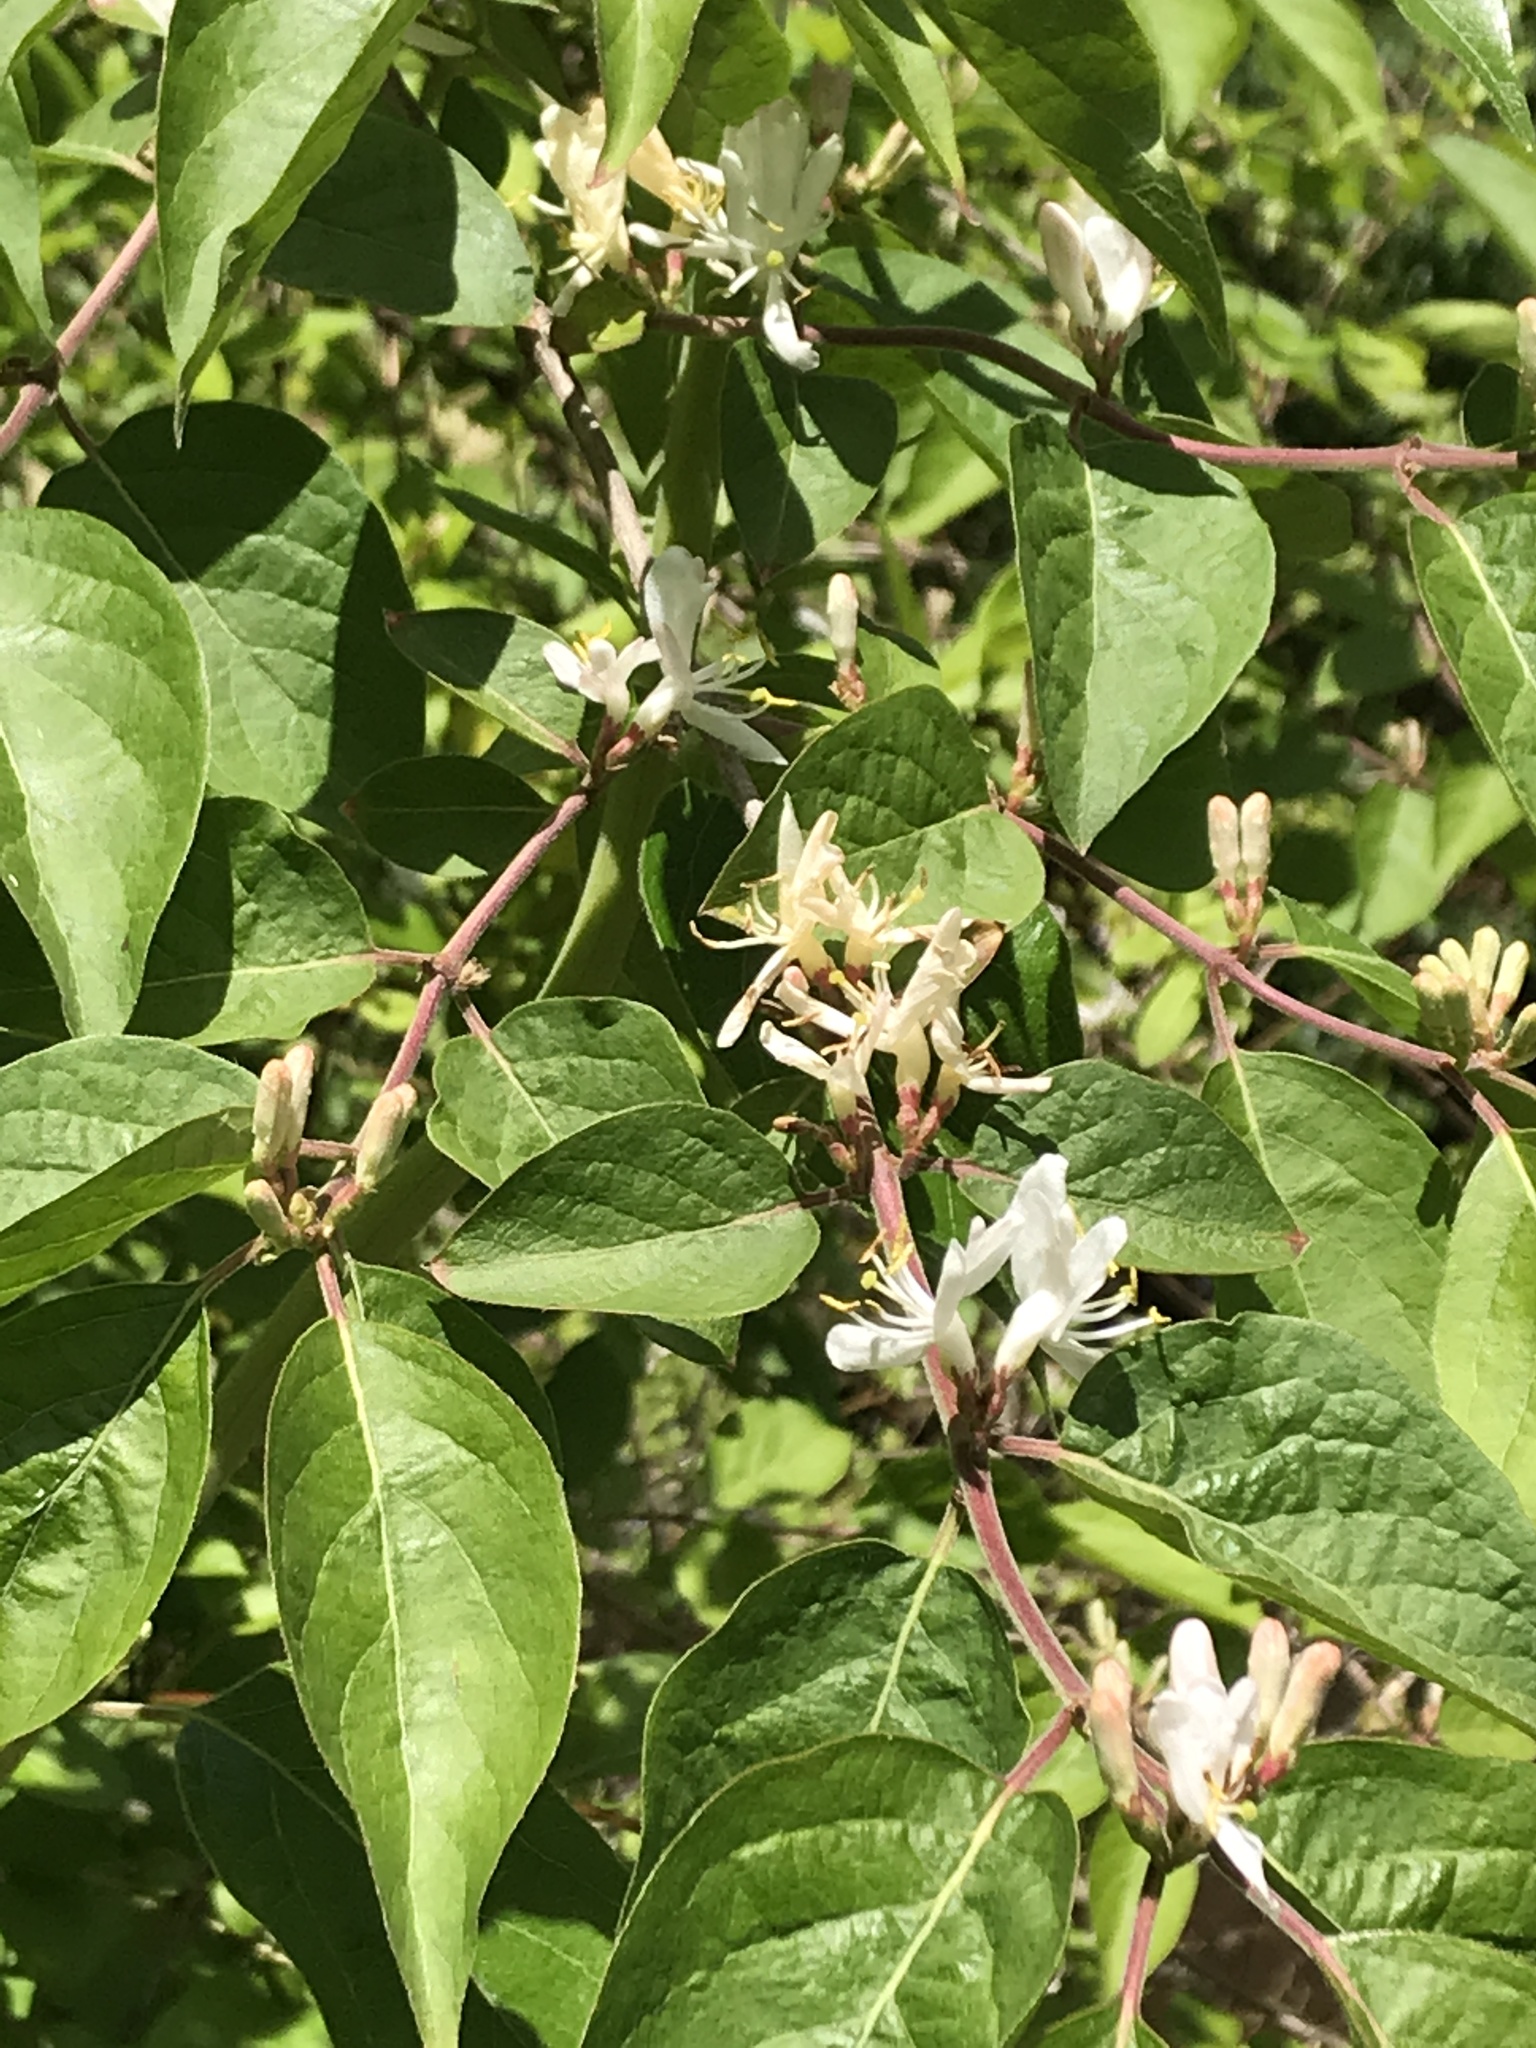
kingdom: Plantae
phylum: Tracheophyta
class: Magnoliopsida
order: Dipsacales
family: Caprifoliaceae
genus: Lonicera
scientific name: Lonicera maackii
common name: Amur honeysuckle
